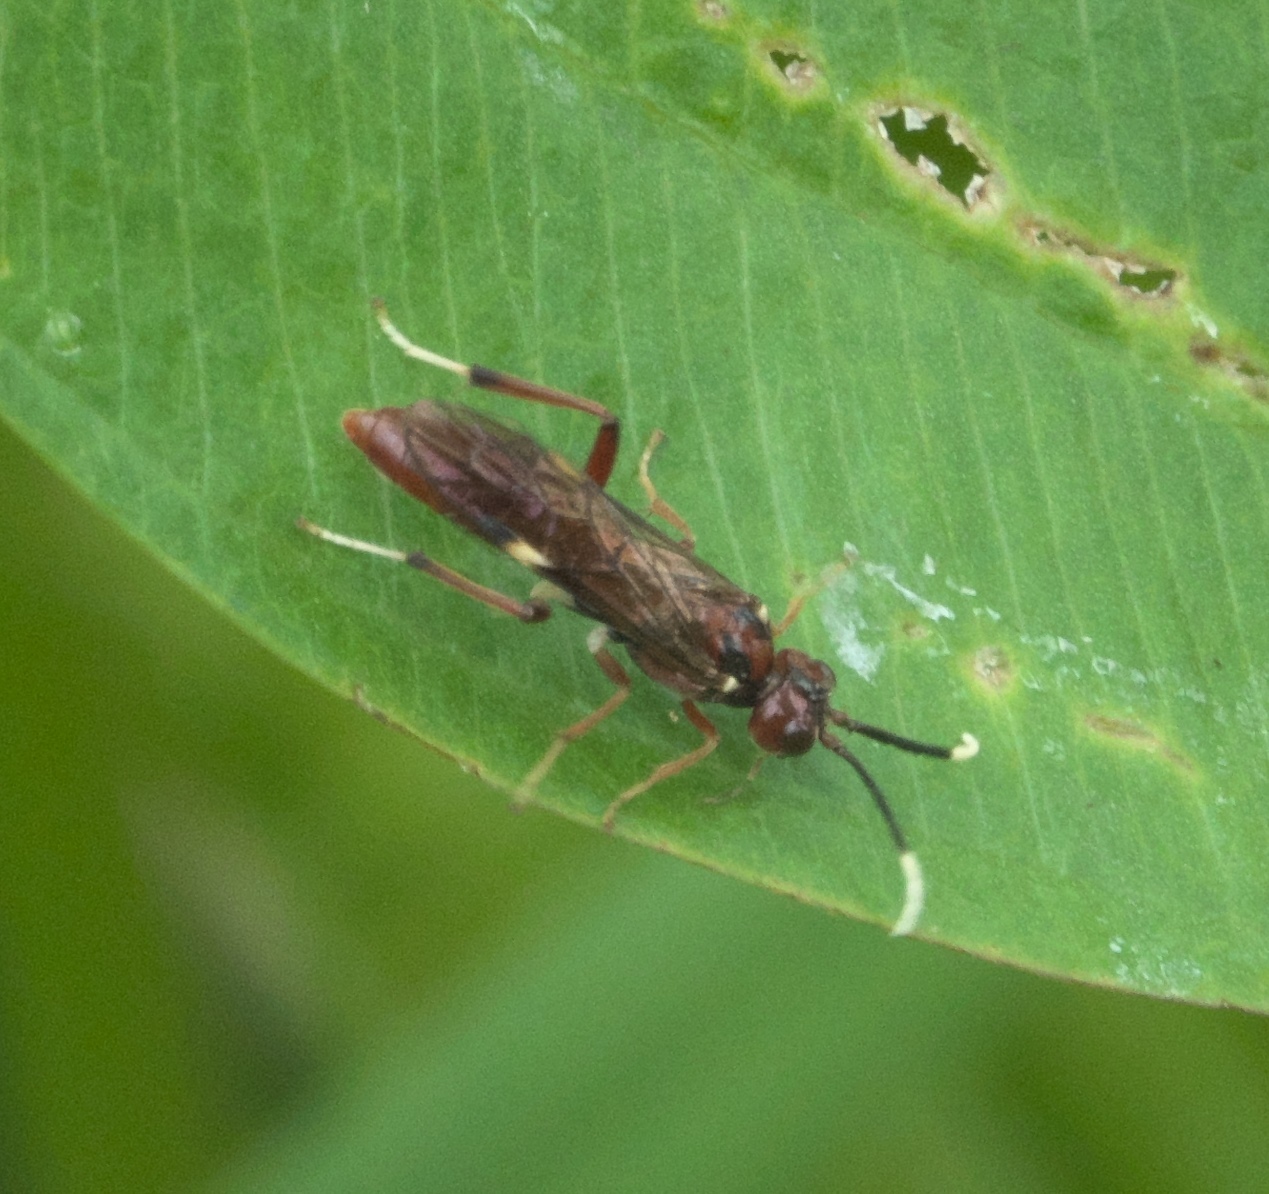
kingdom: Animalia
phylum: Arthropoda
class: Insecta
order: Hymenoptera
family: Tenthredinidae
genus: Macremphytus
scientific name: Macremphytus testaceus
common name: Dogwood sawfly
